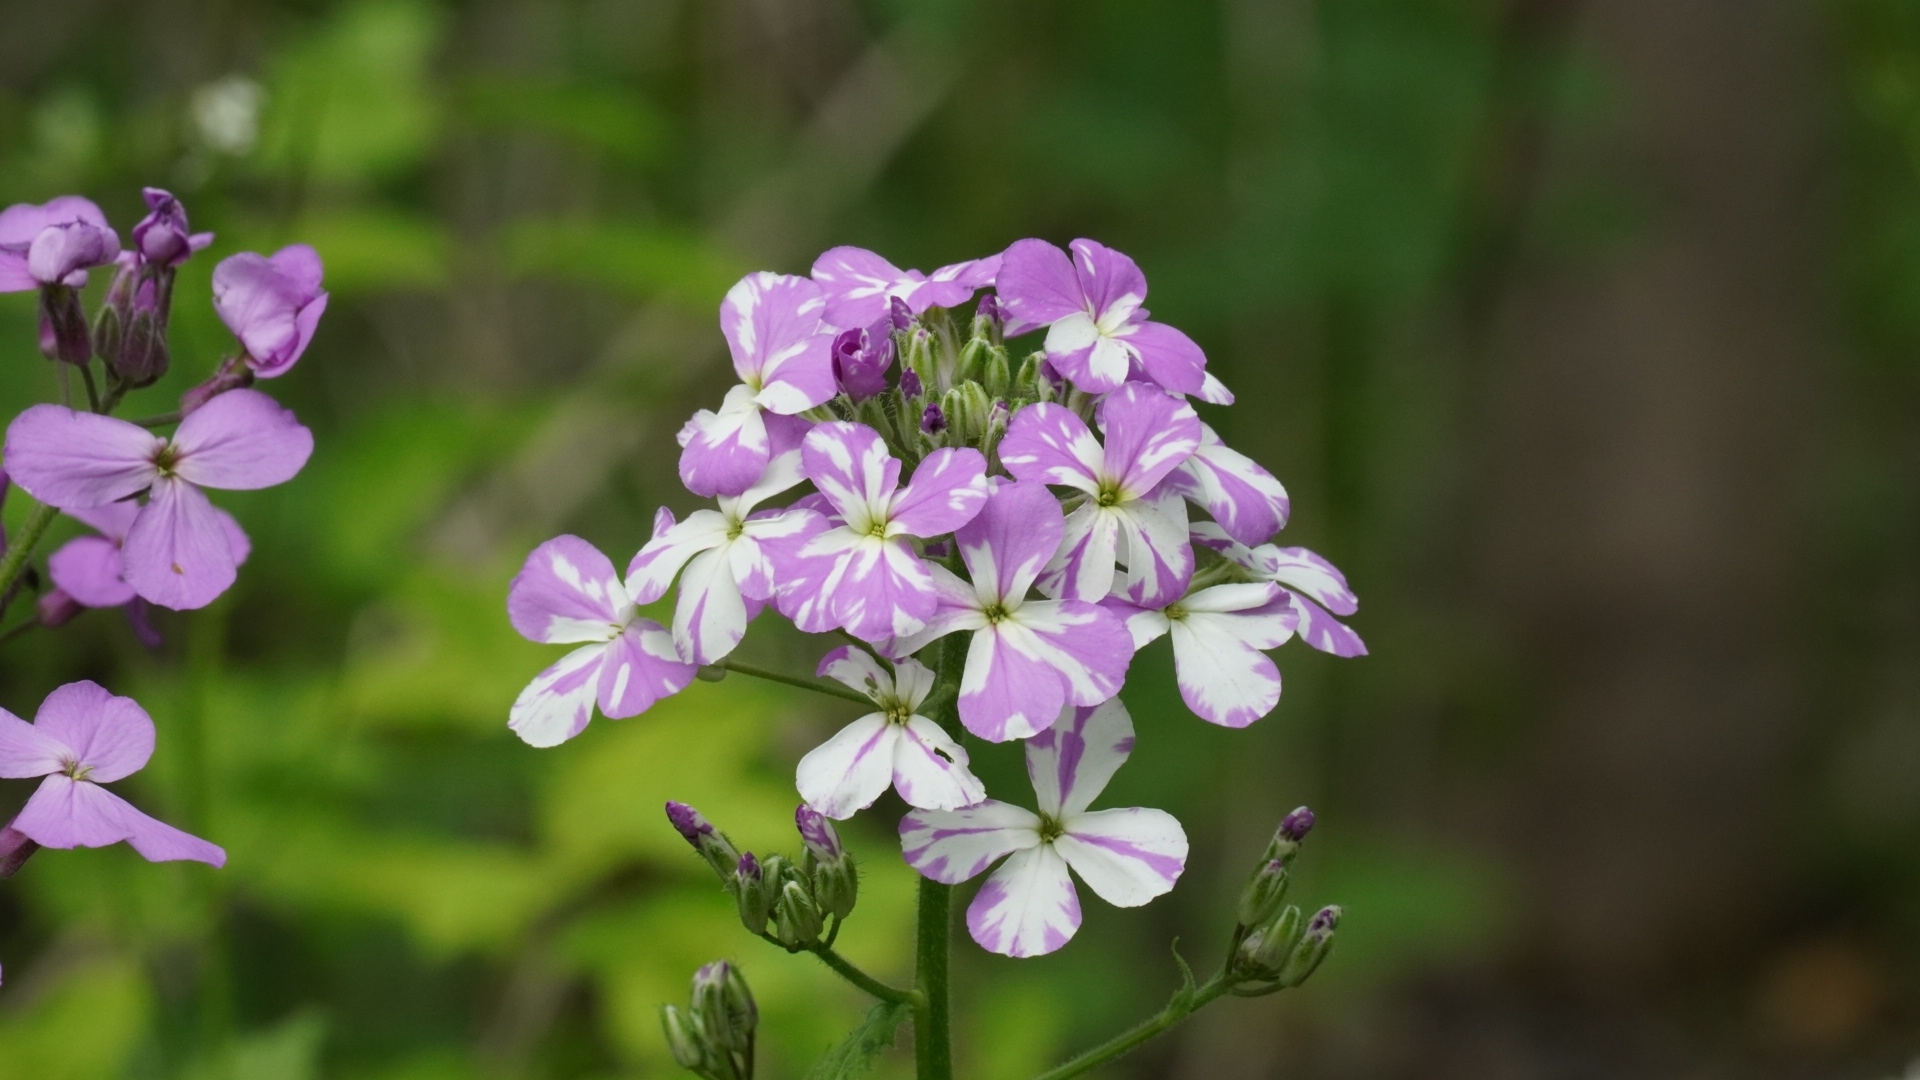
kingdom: Plantae
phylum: Tracheophyta
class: Magnoliopsida
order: Brassicales
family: Brassicaceae
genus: Hesperis
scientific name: Hesperis matronalis
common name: Dame's-violet
